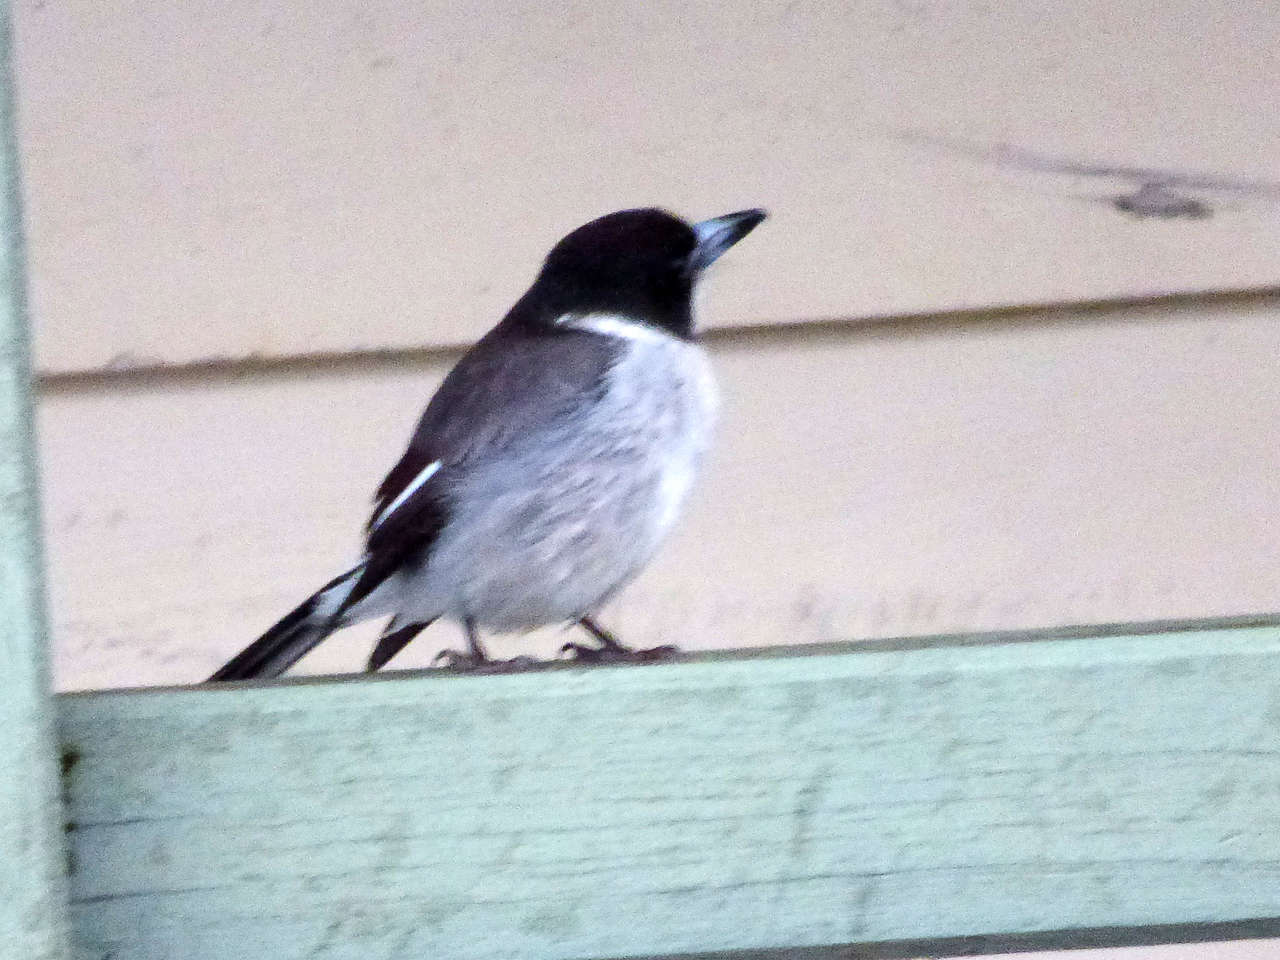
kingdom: Animalia
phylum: Chordata
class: Aves
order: Passeriformes
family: Cracticidae
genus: Cracticus
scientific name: Cracticus torquatus
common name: Grey butcherbird
